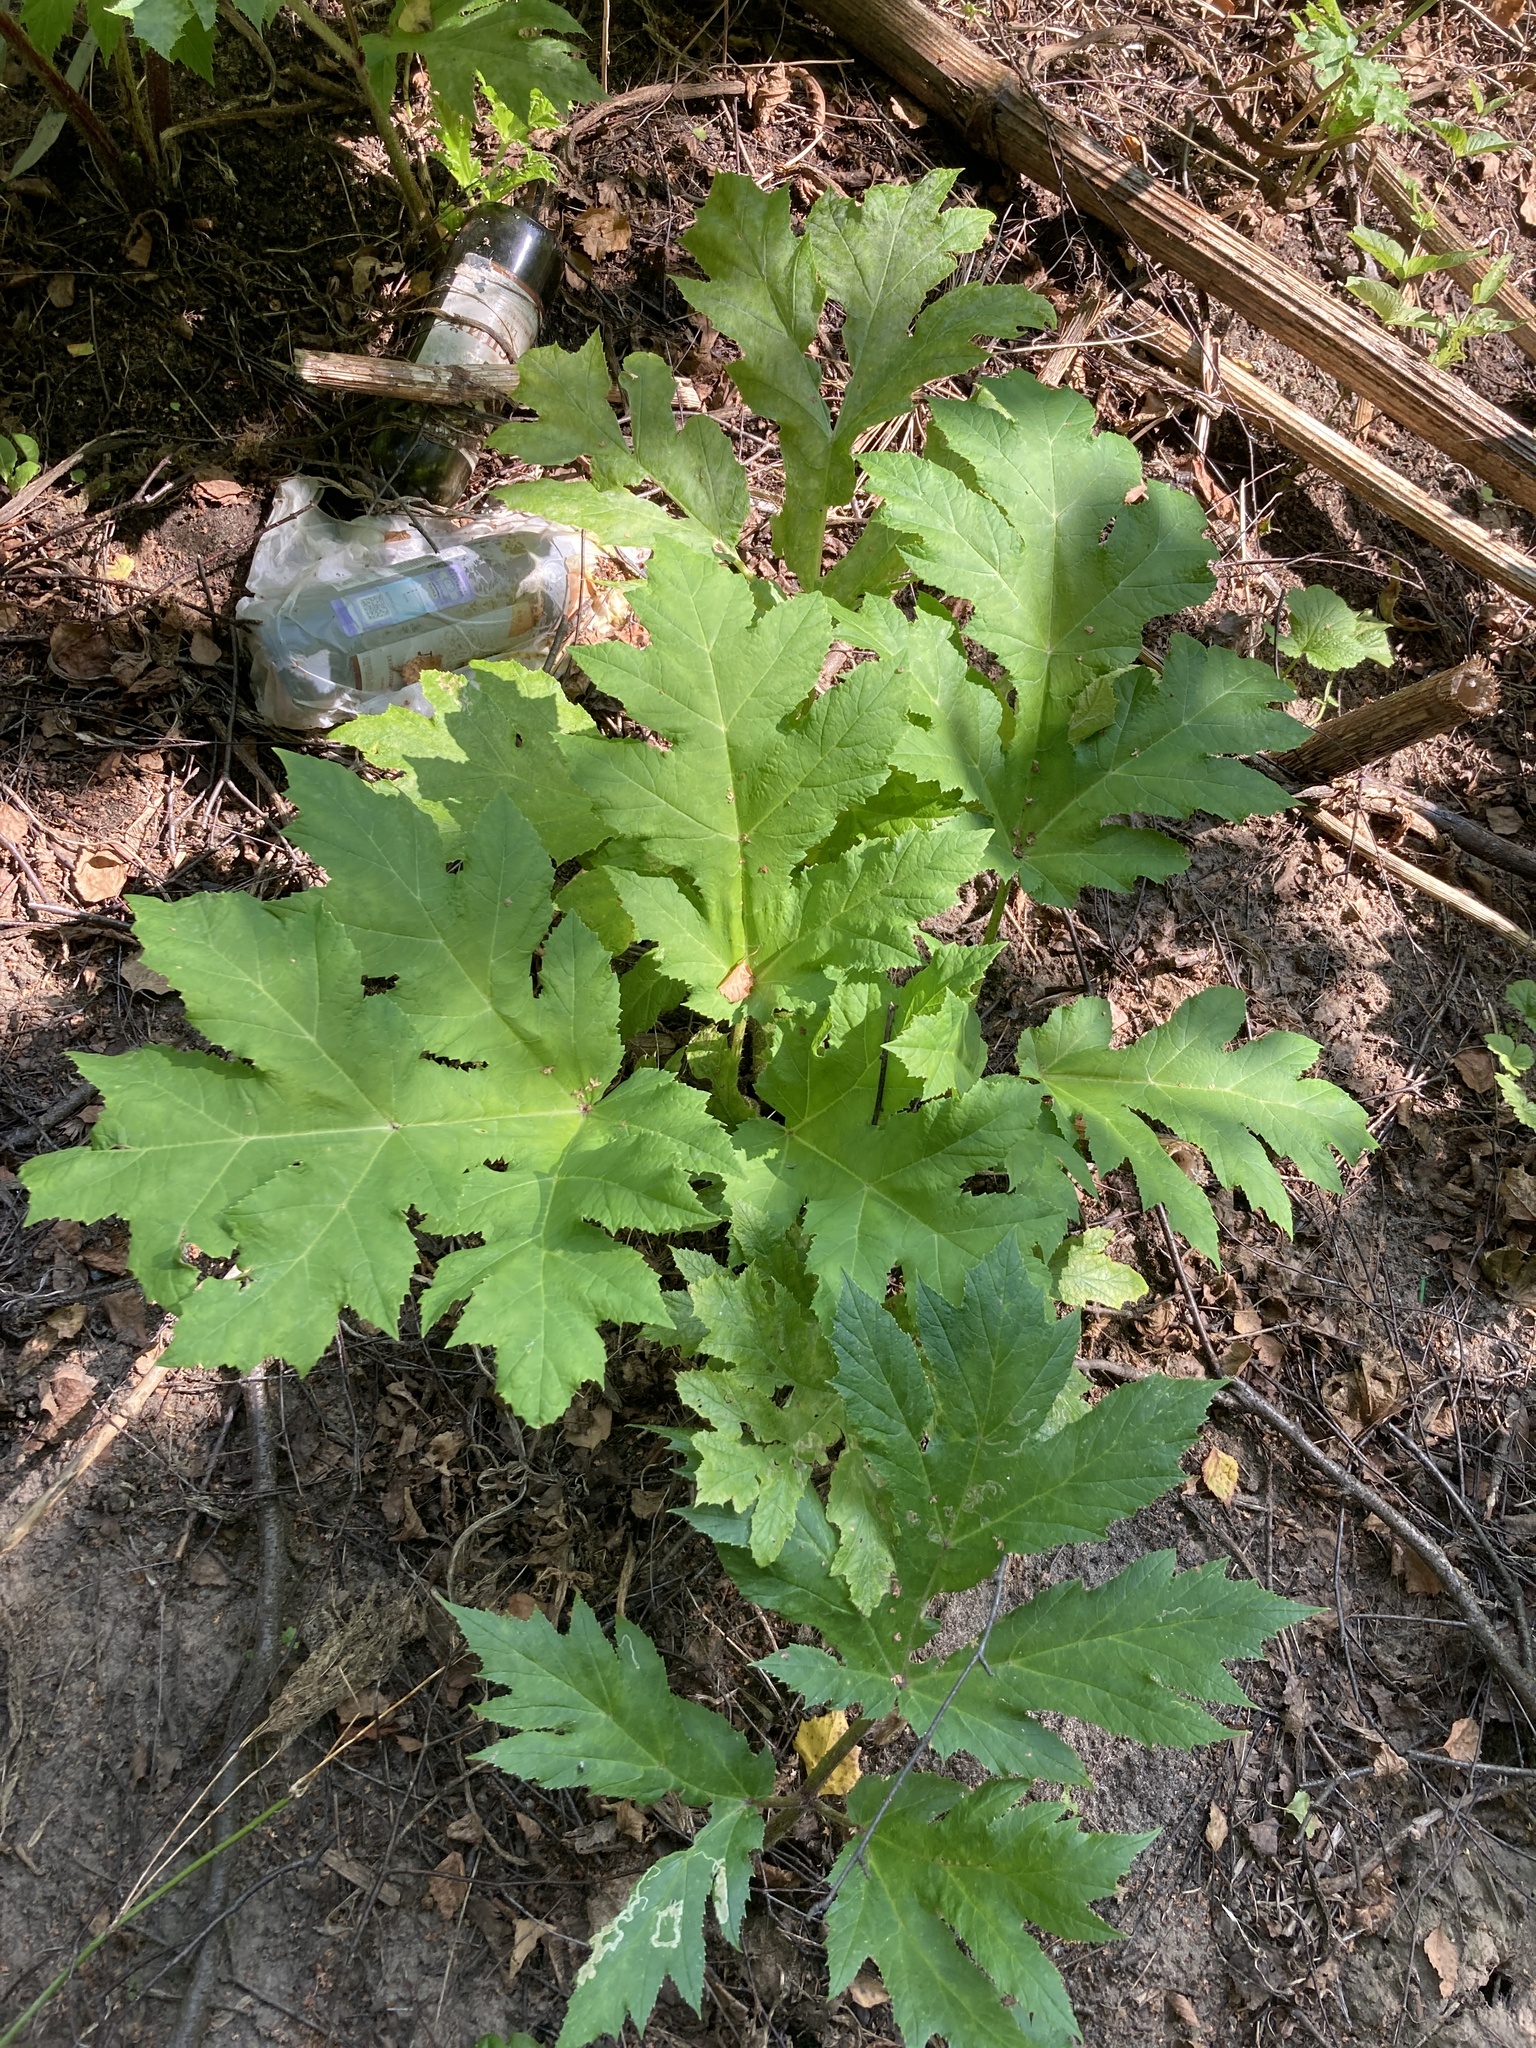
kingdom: Plantae
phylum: Tracheophyta
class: Magnoliopsida
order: Apiales
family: Apiaceae
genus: Heracleum
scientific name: Heracleum sosnowskyi
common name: Sosnowsky's hogweed
